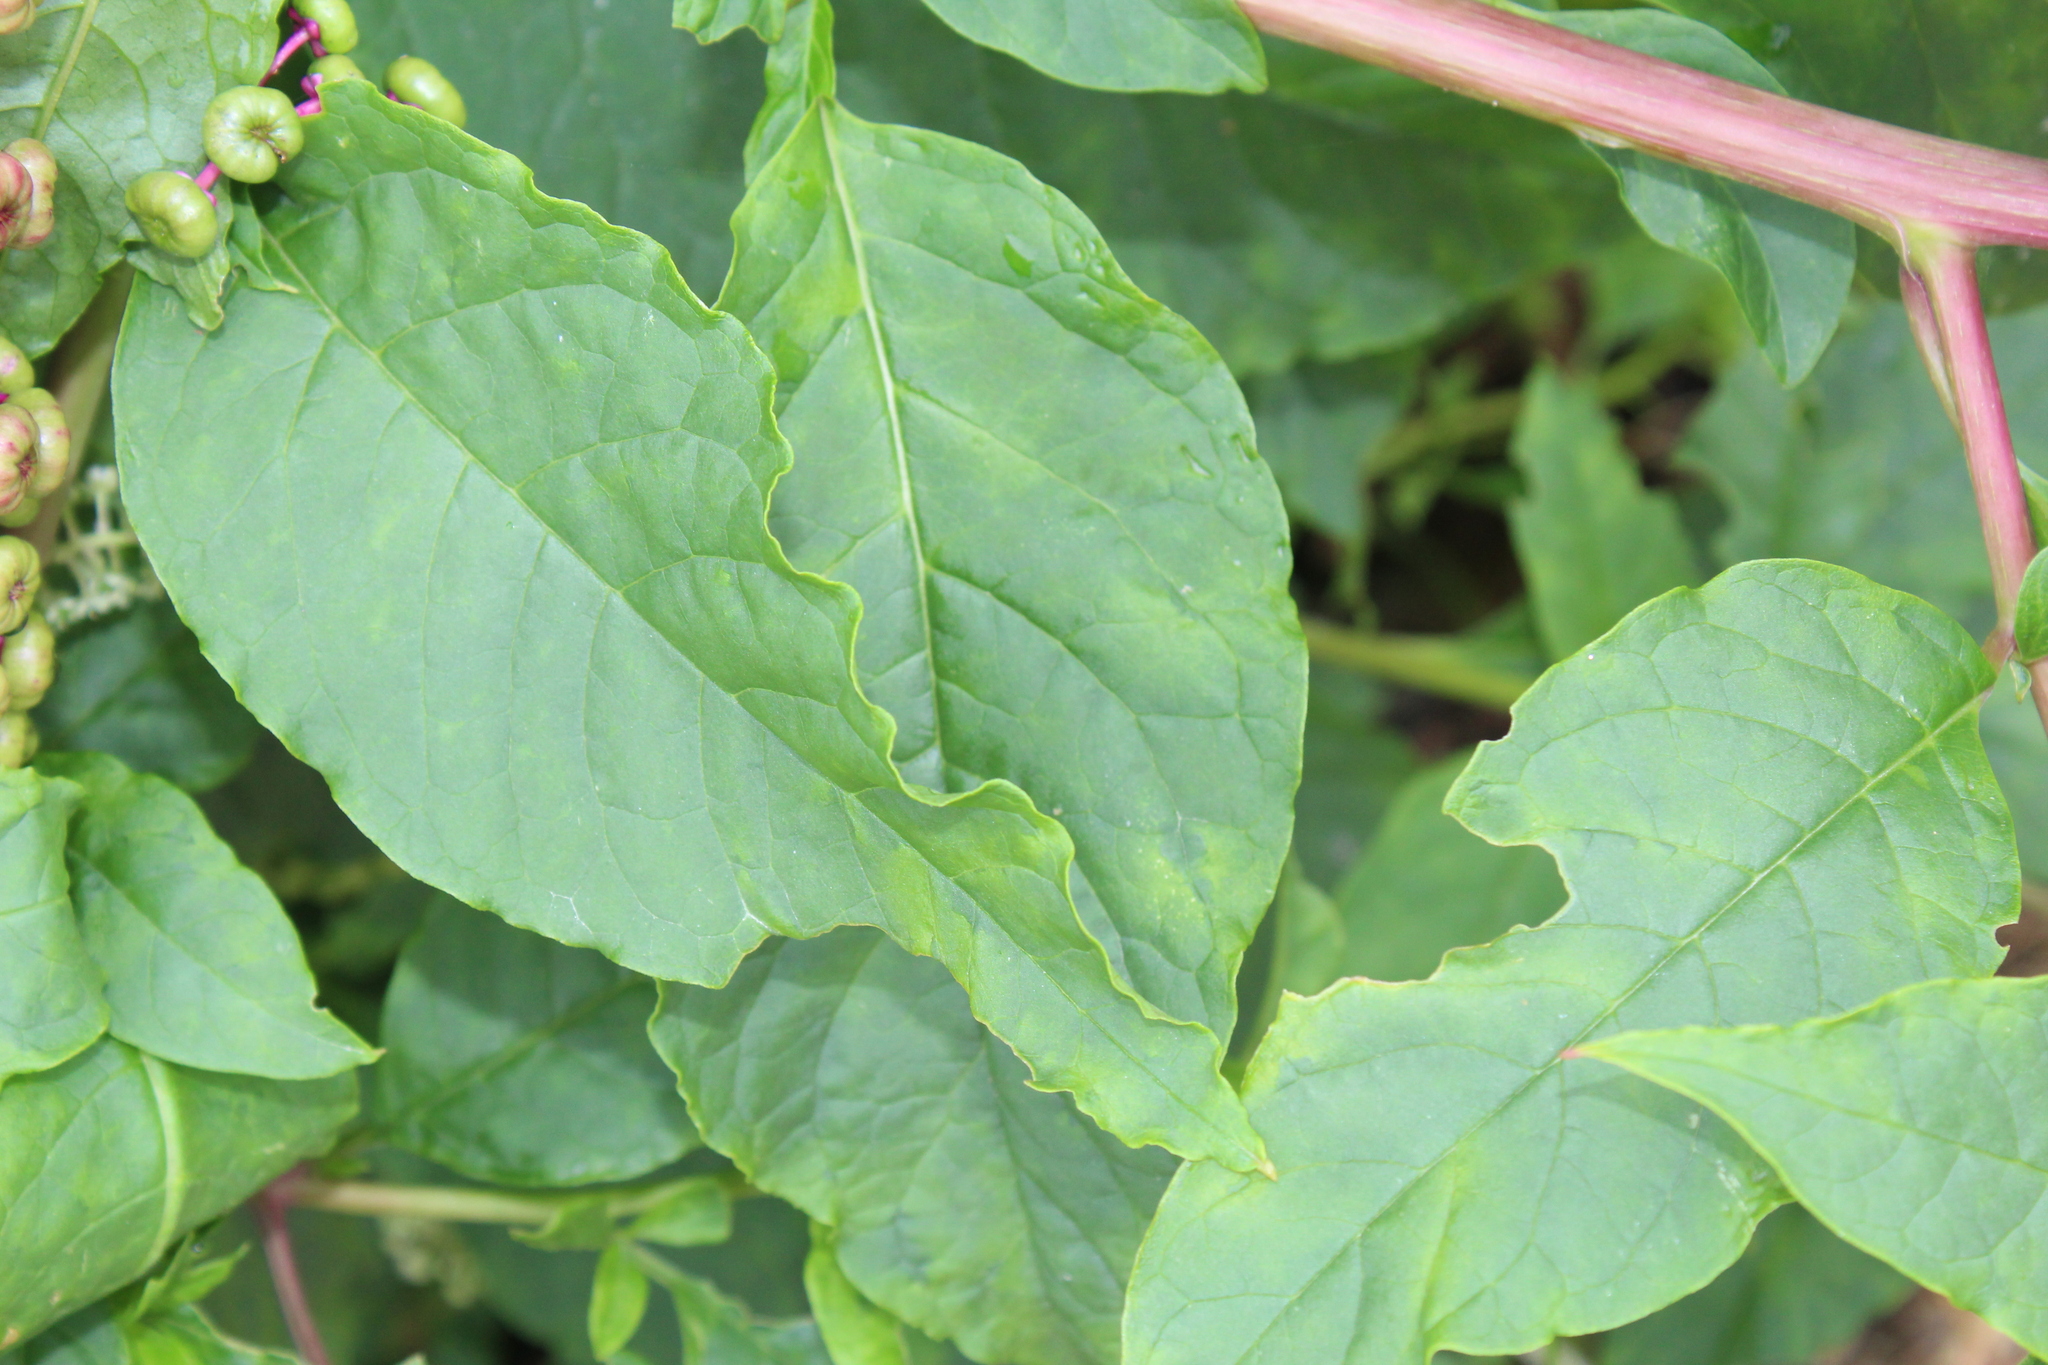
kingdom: Viruses
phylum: Pisuviricota
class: Stelpaviricetes
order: Patatavirales
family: Potyviridae
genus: Potyvirus
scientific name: Potyvirus Pokeweed mosaic virus
